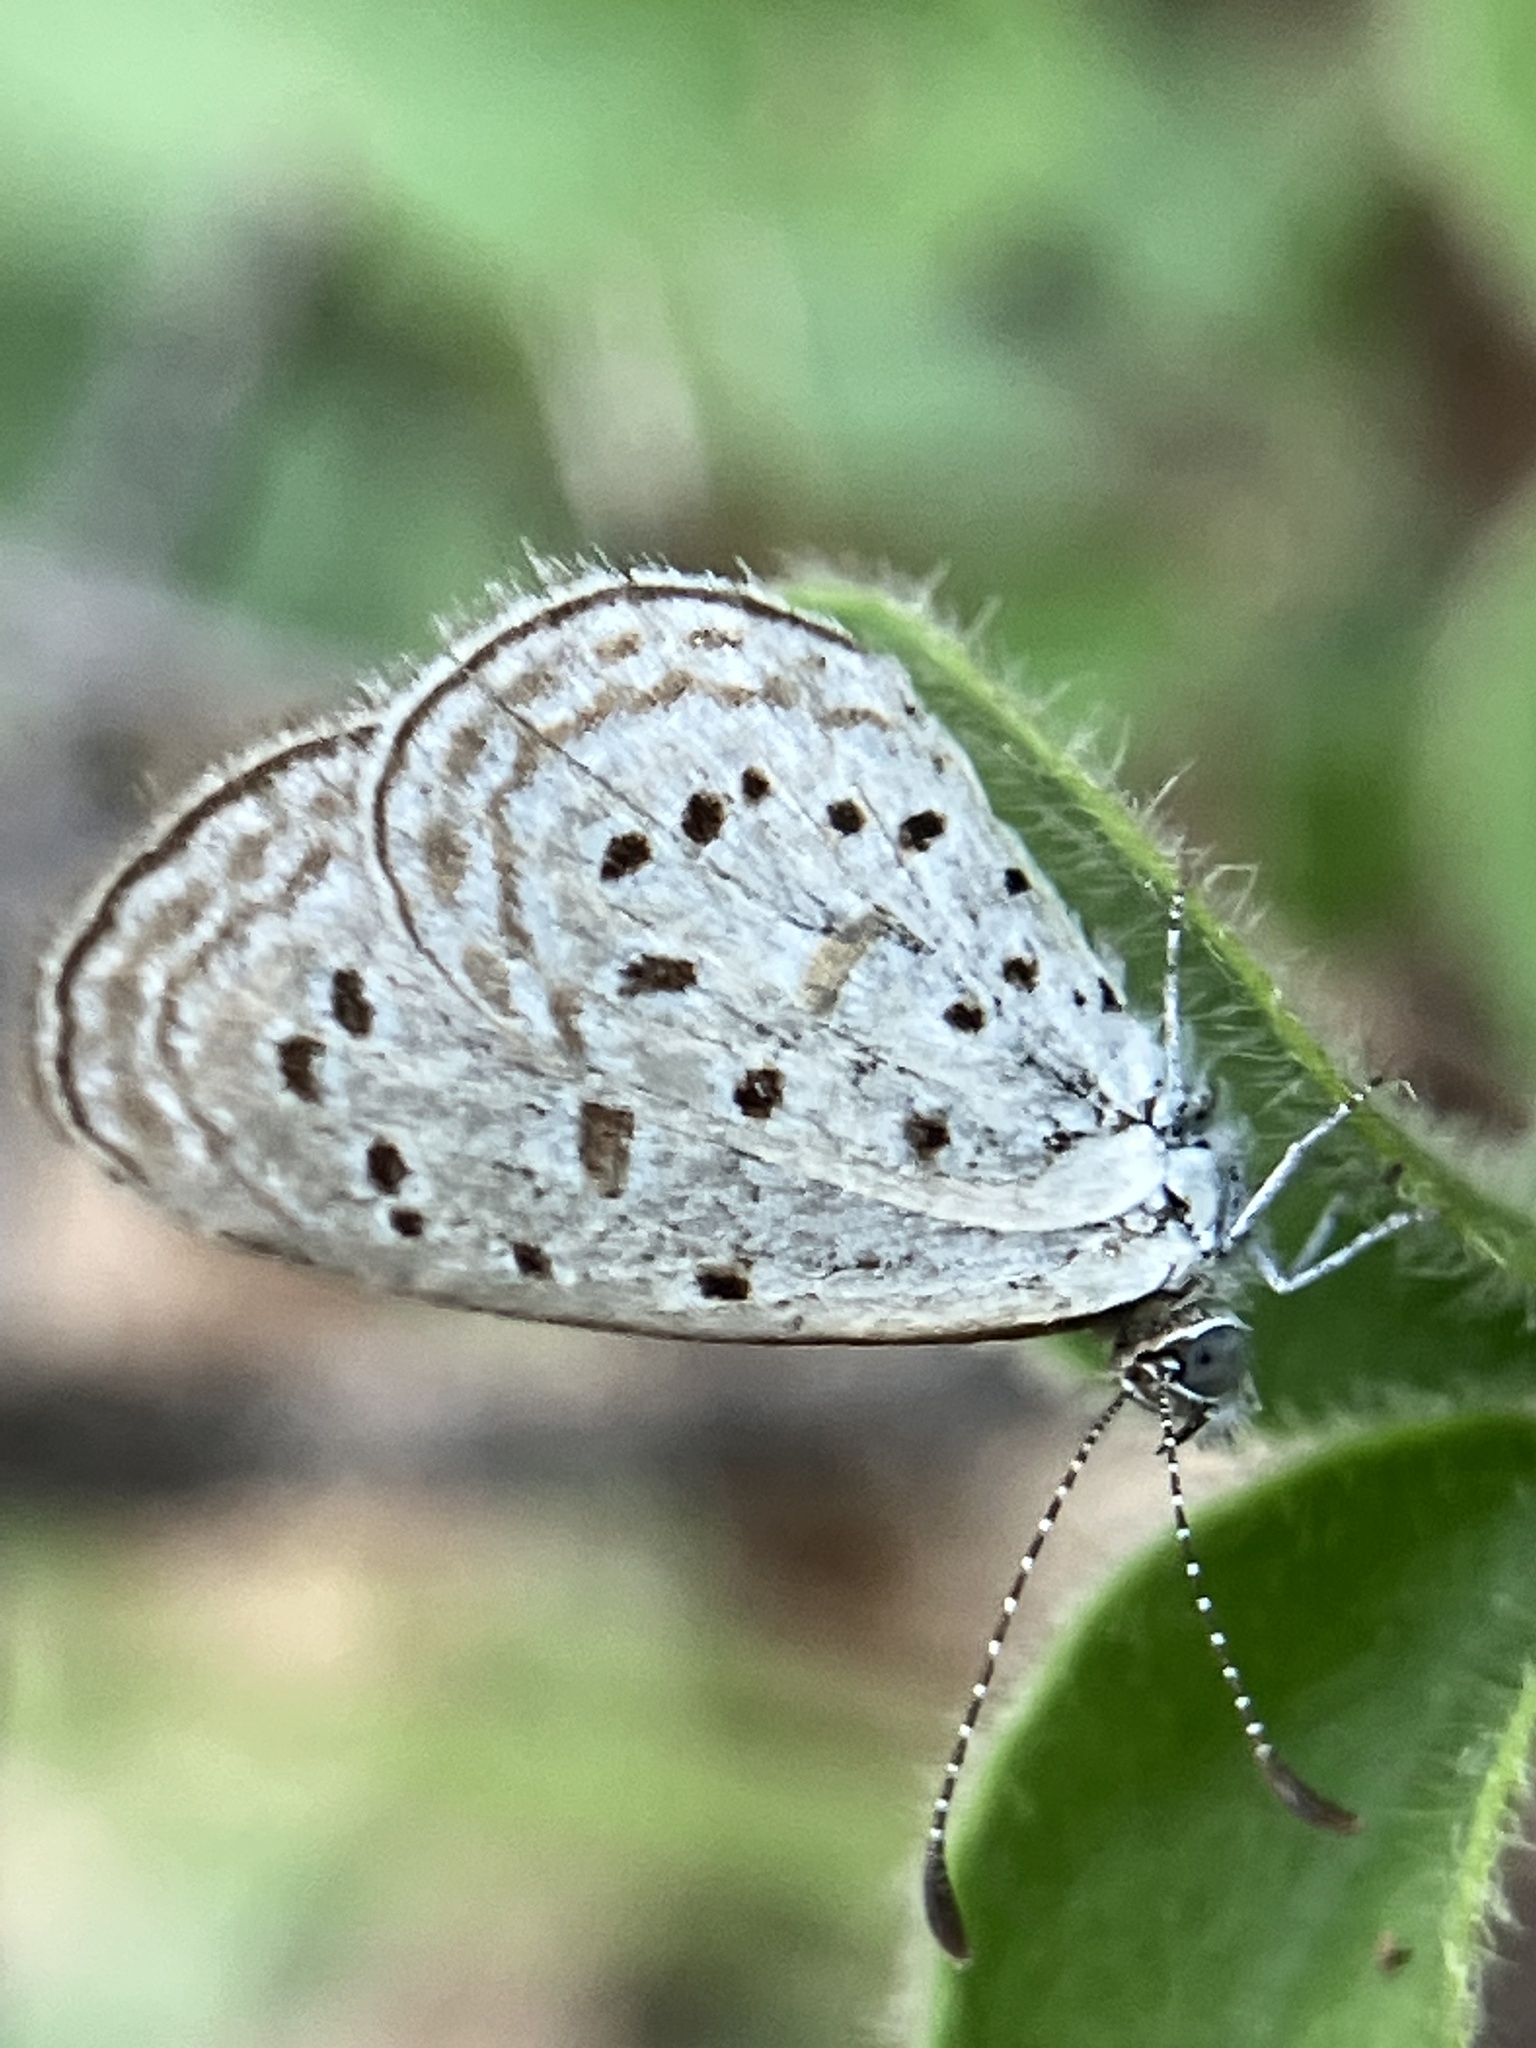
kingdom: Animalia
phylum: Arthropoda
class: Insecta
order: Lepidoptera
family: Lycaenidae
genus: Zizula
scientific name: Zizula hylax
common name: Gaika blue
